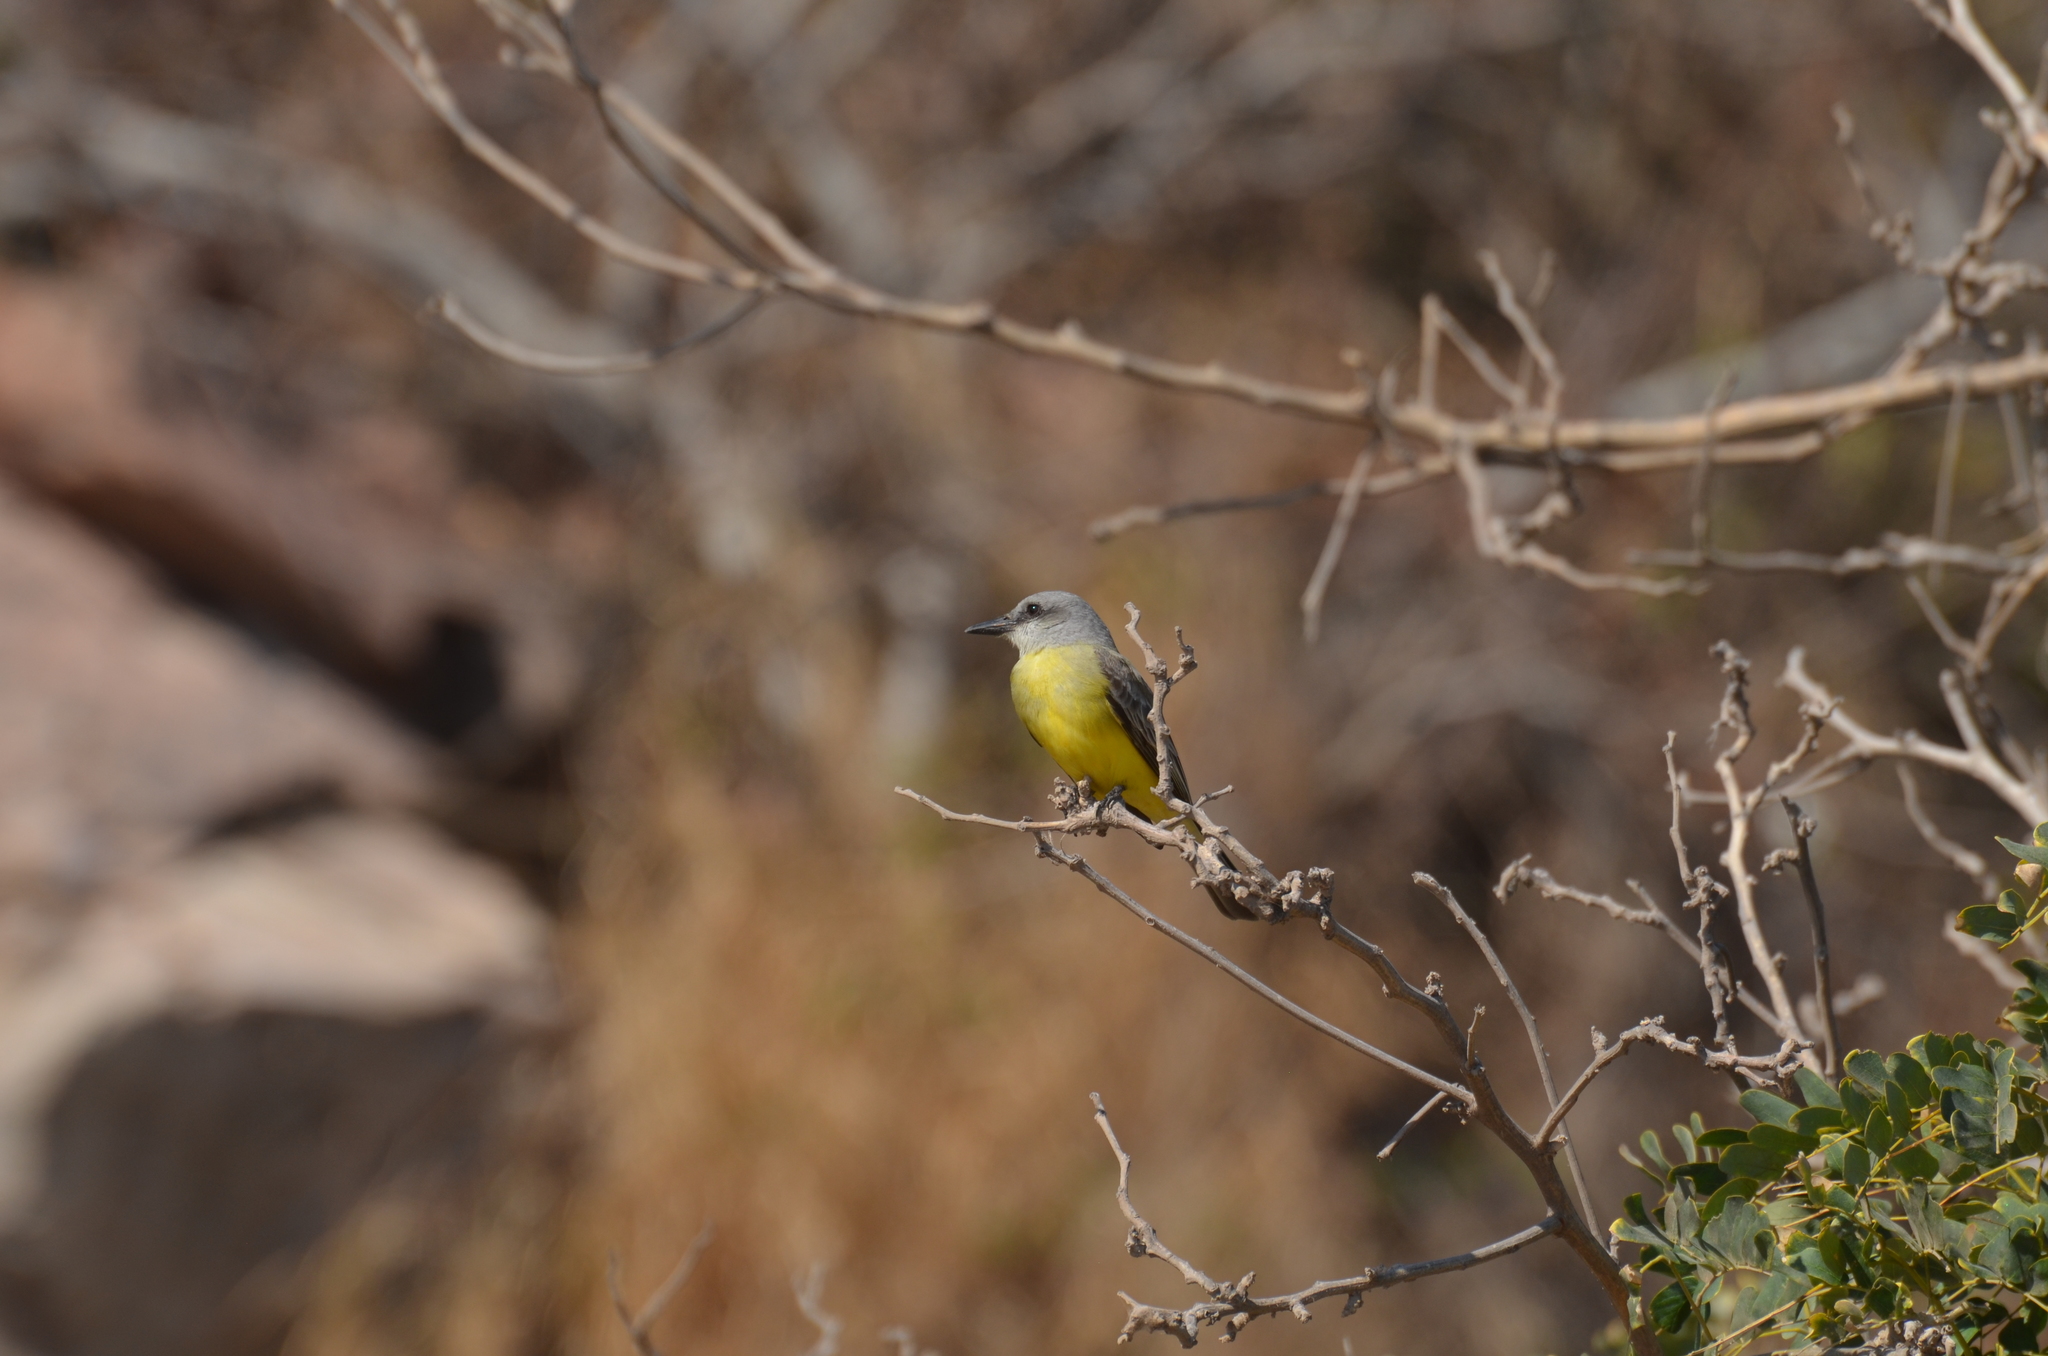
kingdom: Animalia
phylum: Chordata
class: Aves
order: Passeriformes
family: Tyrannidae
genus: Tyrannus
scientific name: Tyrannus melancholicus
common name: Tropical kingbird
